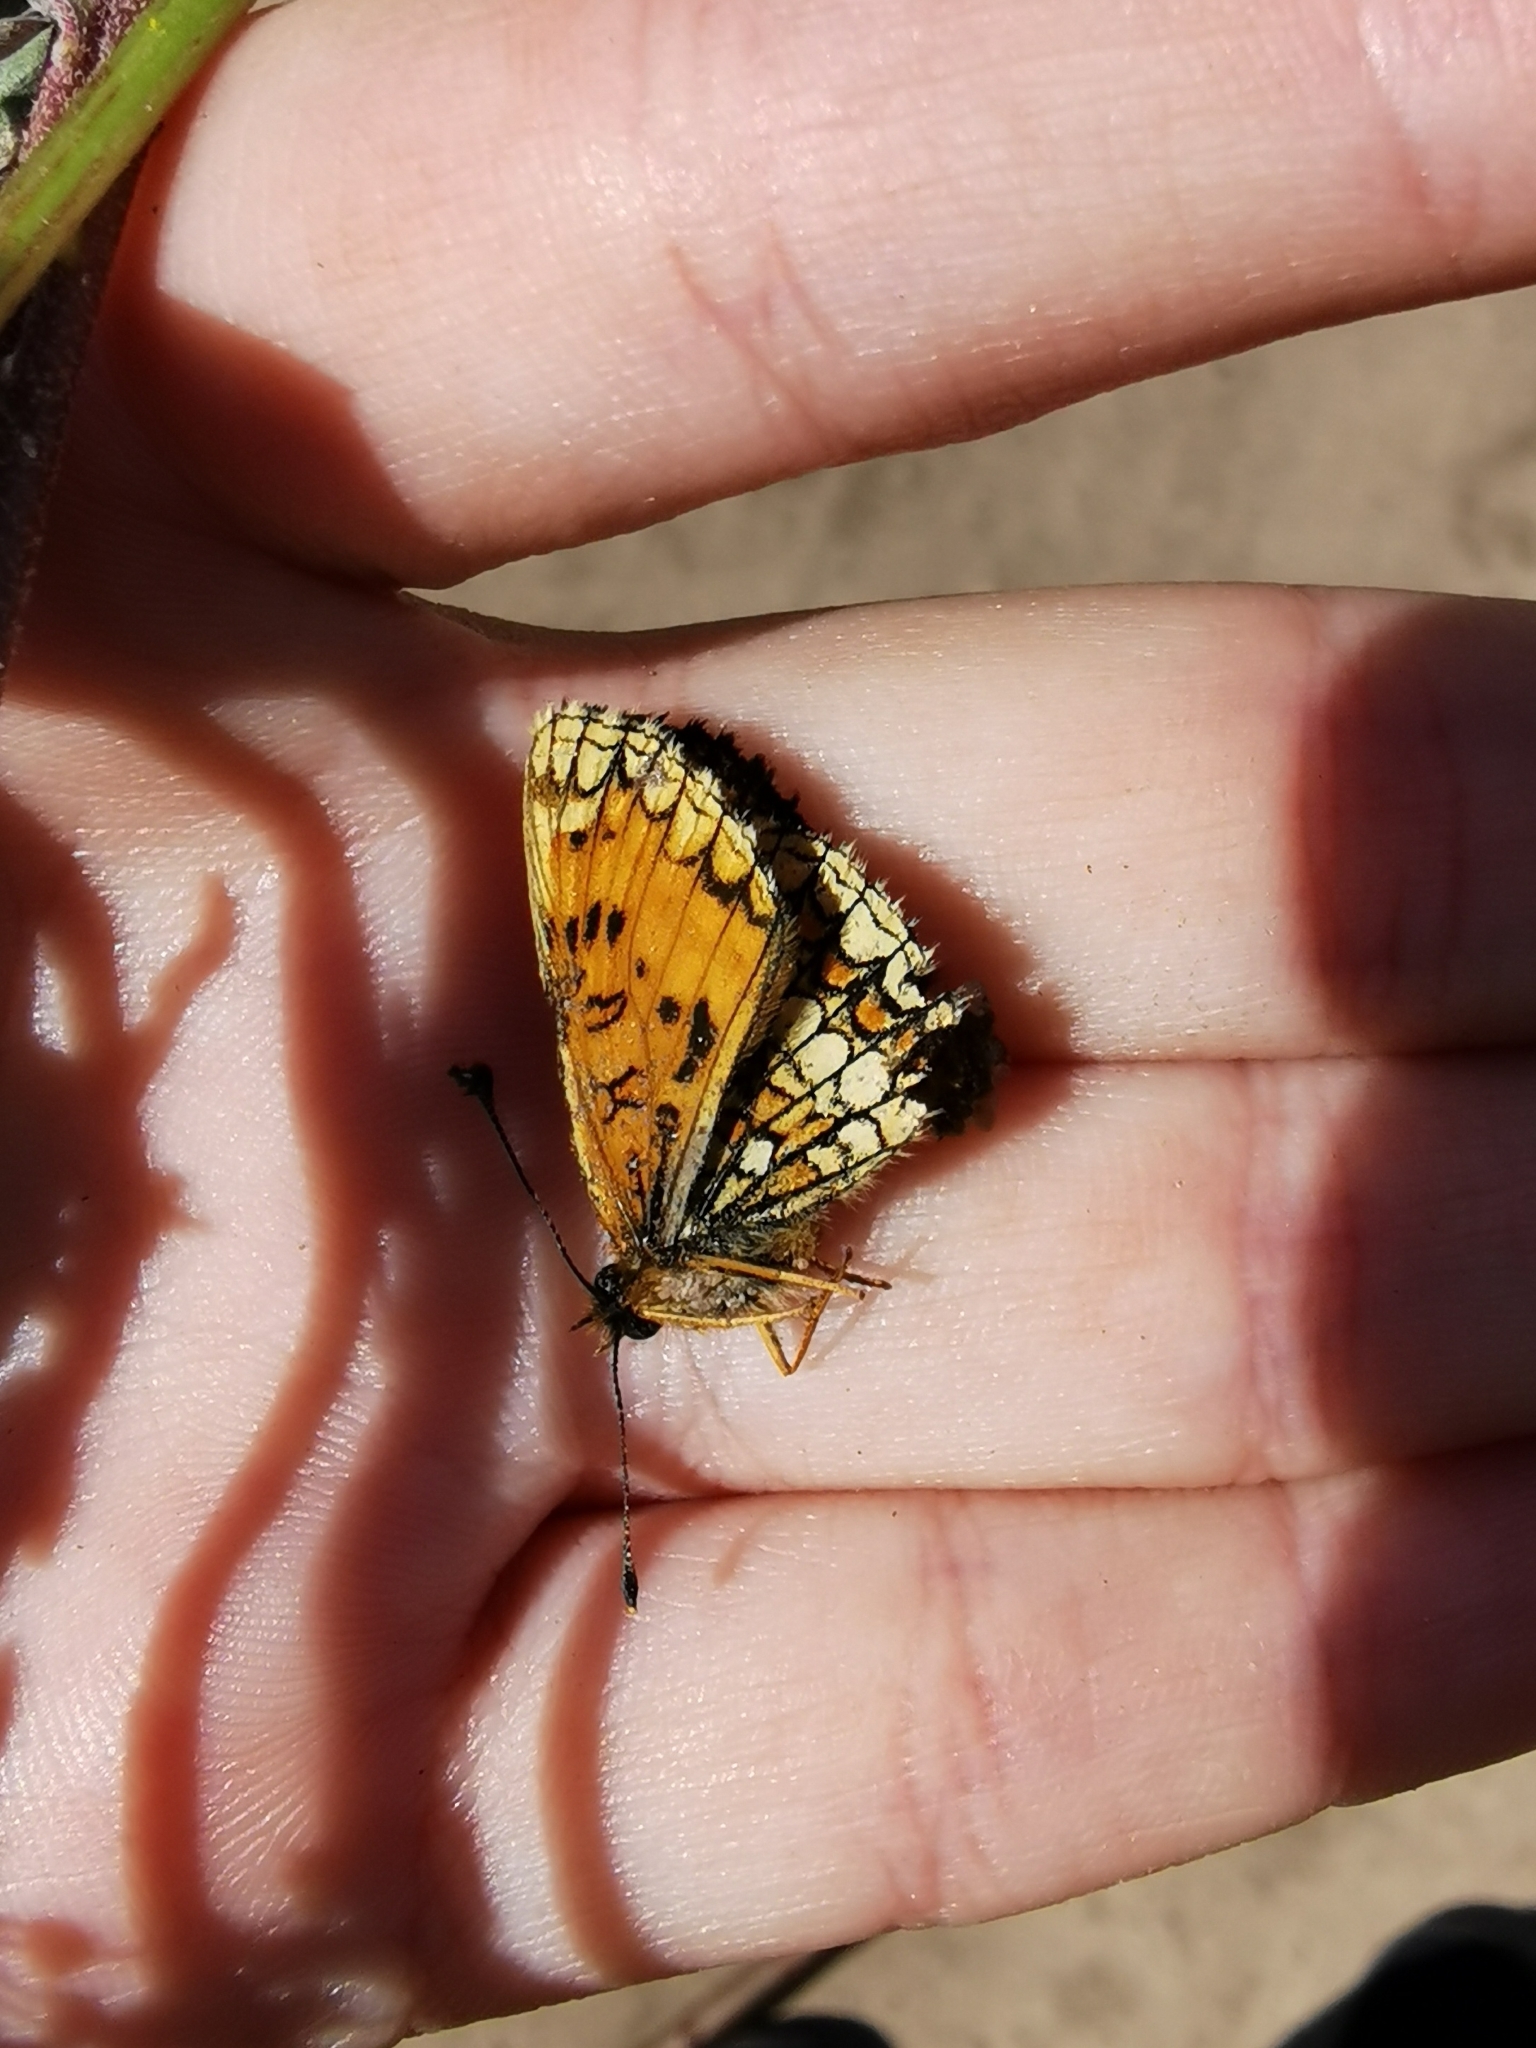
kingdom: Animalia
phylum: Arthropoda
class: Insecta
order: Lepidoptera
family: Nymphalidae
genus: Melitaea
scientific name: Melitaea
